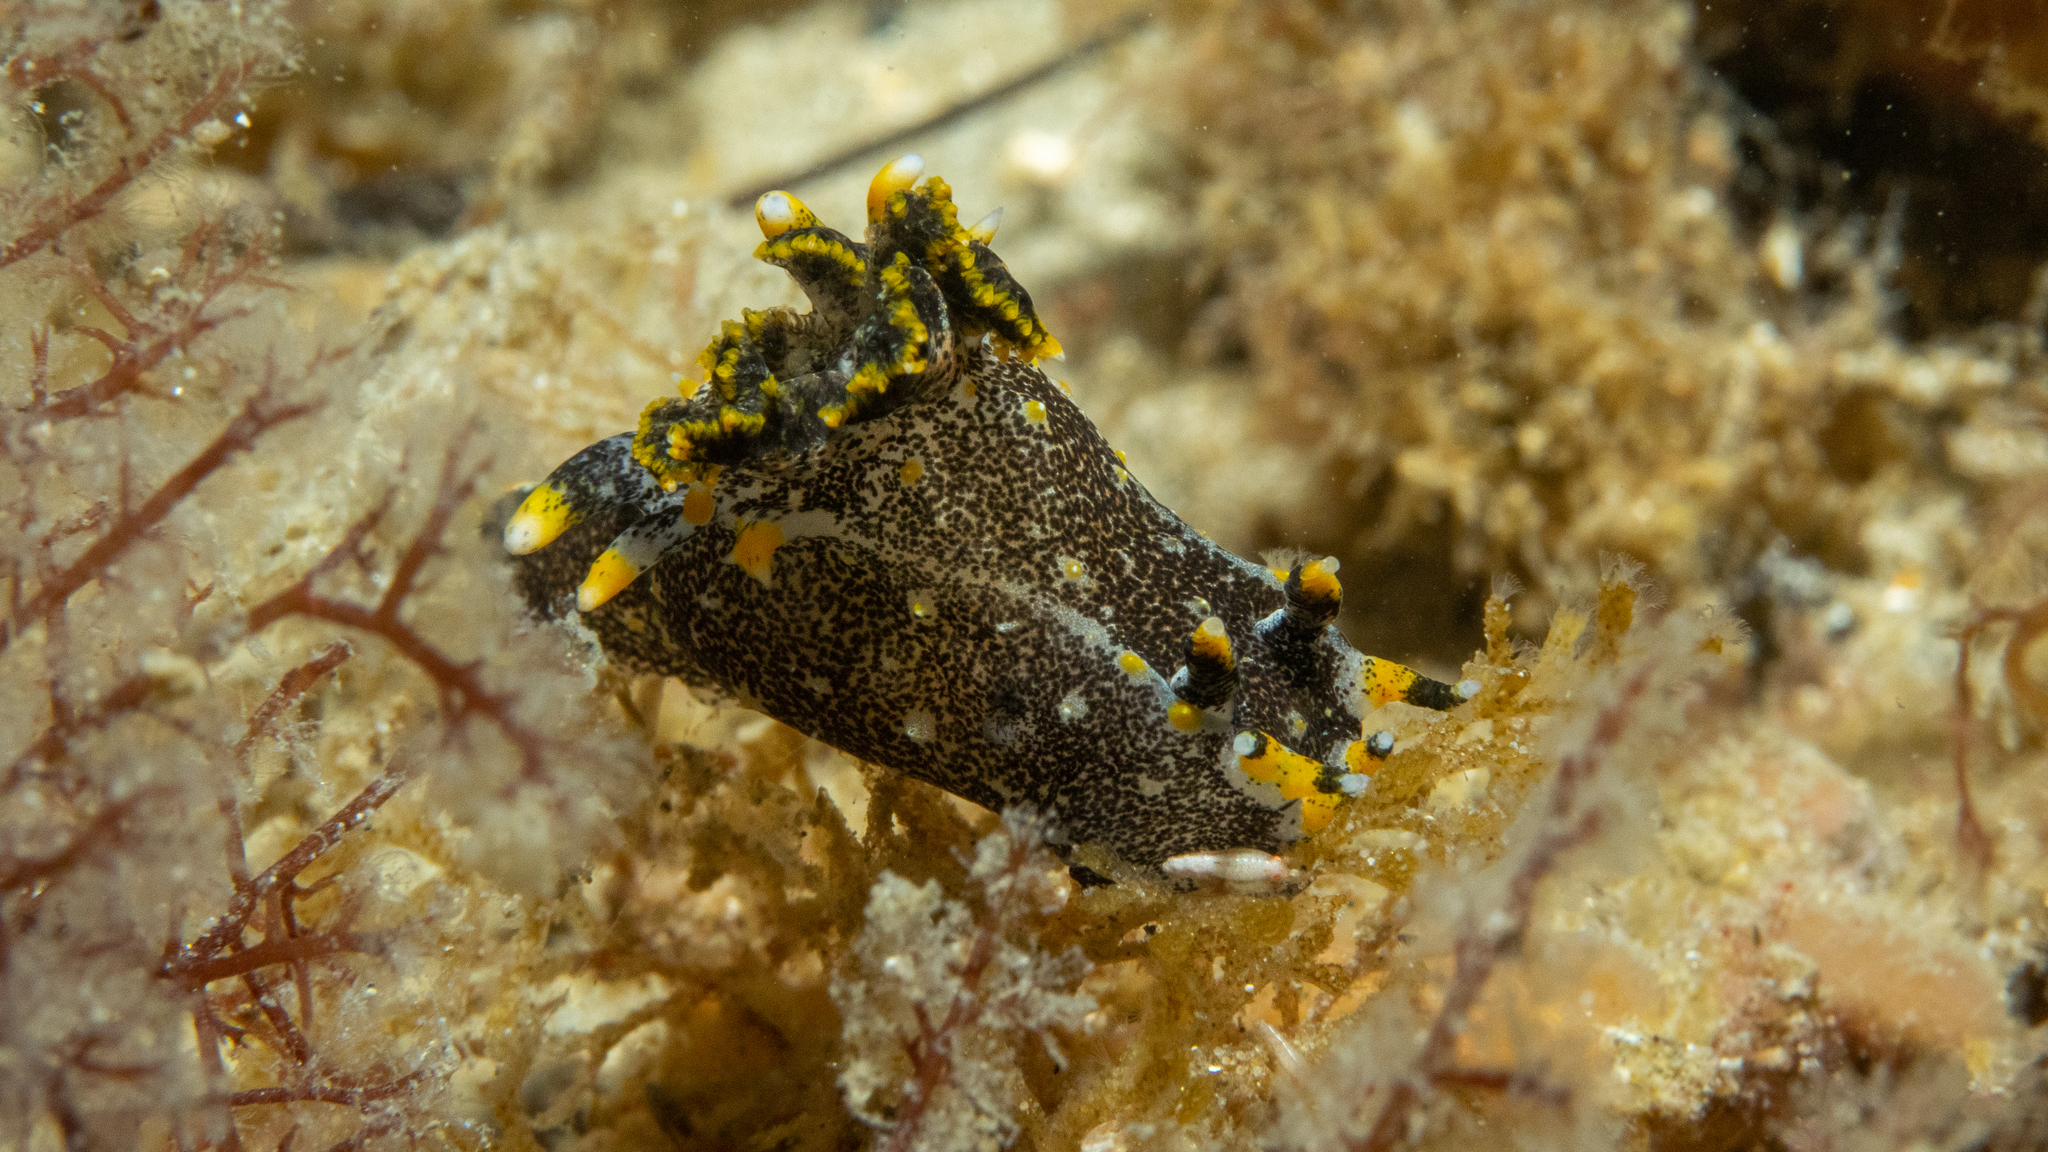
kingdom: Animalia
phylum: Mollusca
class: Gastropoda
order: Nudibranchia
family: Polyceridae
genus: Polycera
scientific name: Polycera hedgpethi
